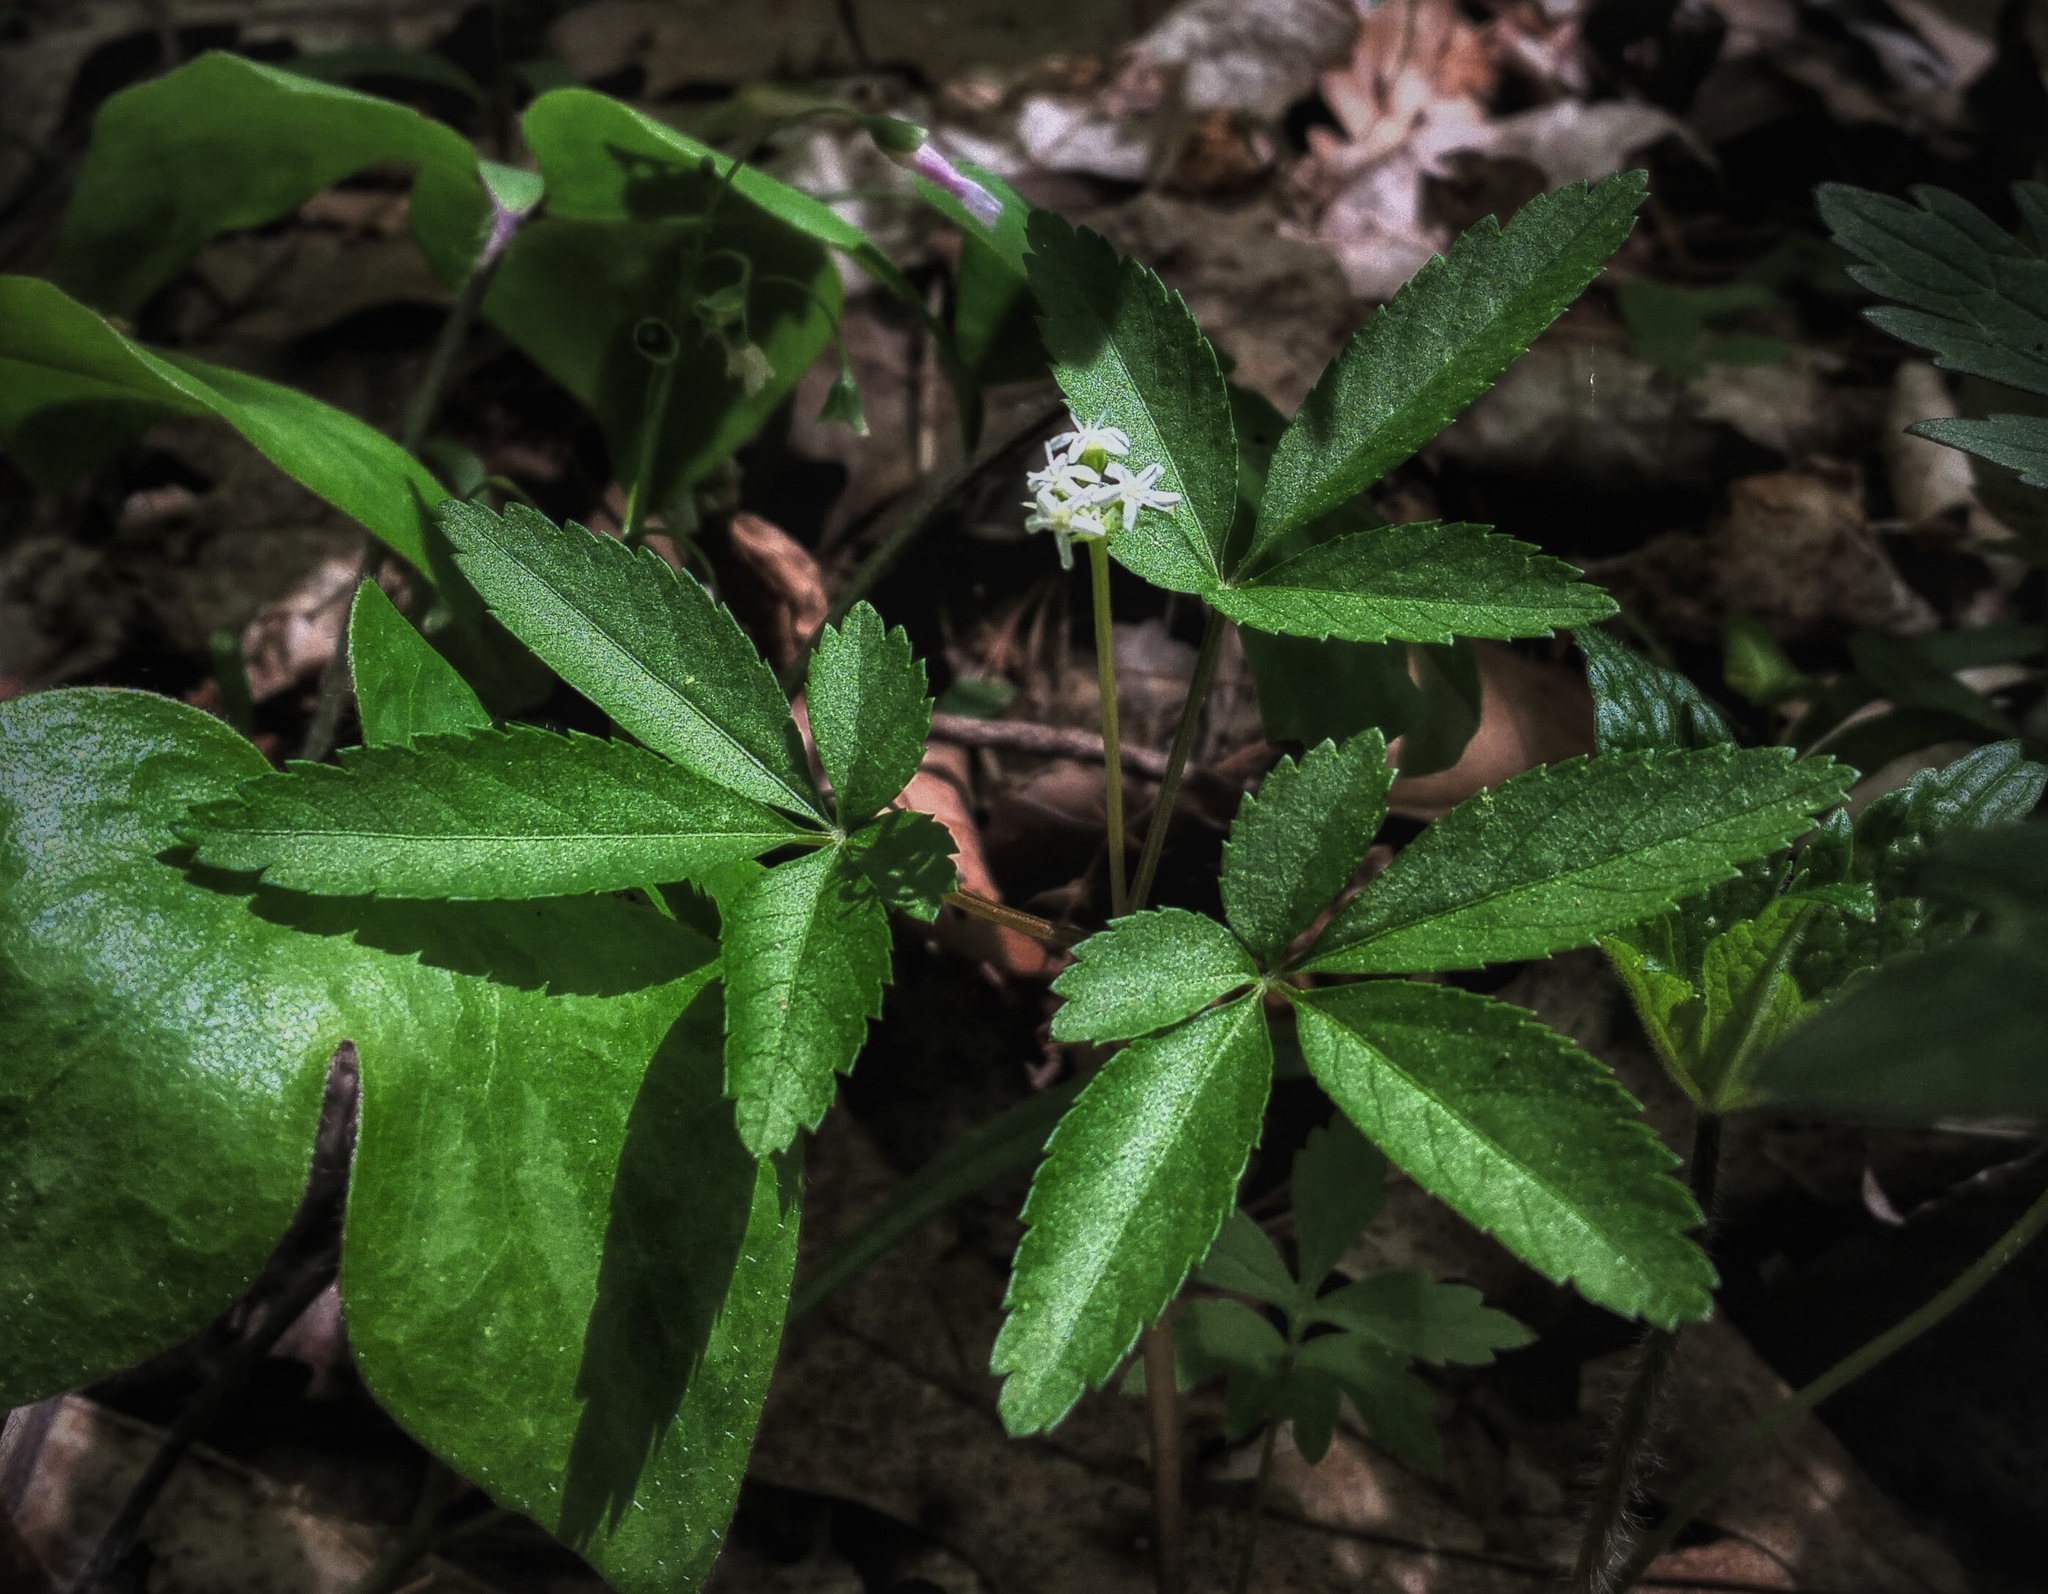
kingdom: Plantae
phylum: Tracheophyta
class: Magnoliopsida
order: Apiales
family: Araliaceae
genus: Panax
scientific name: Panax trifolius
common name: Dwarf ginseng
